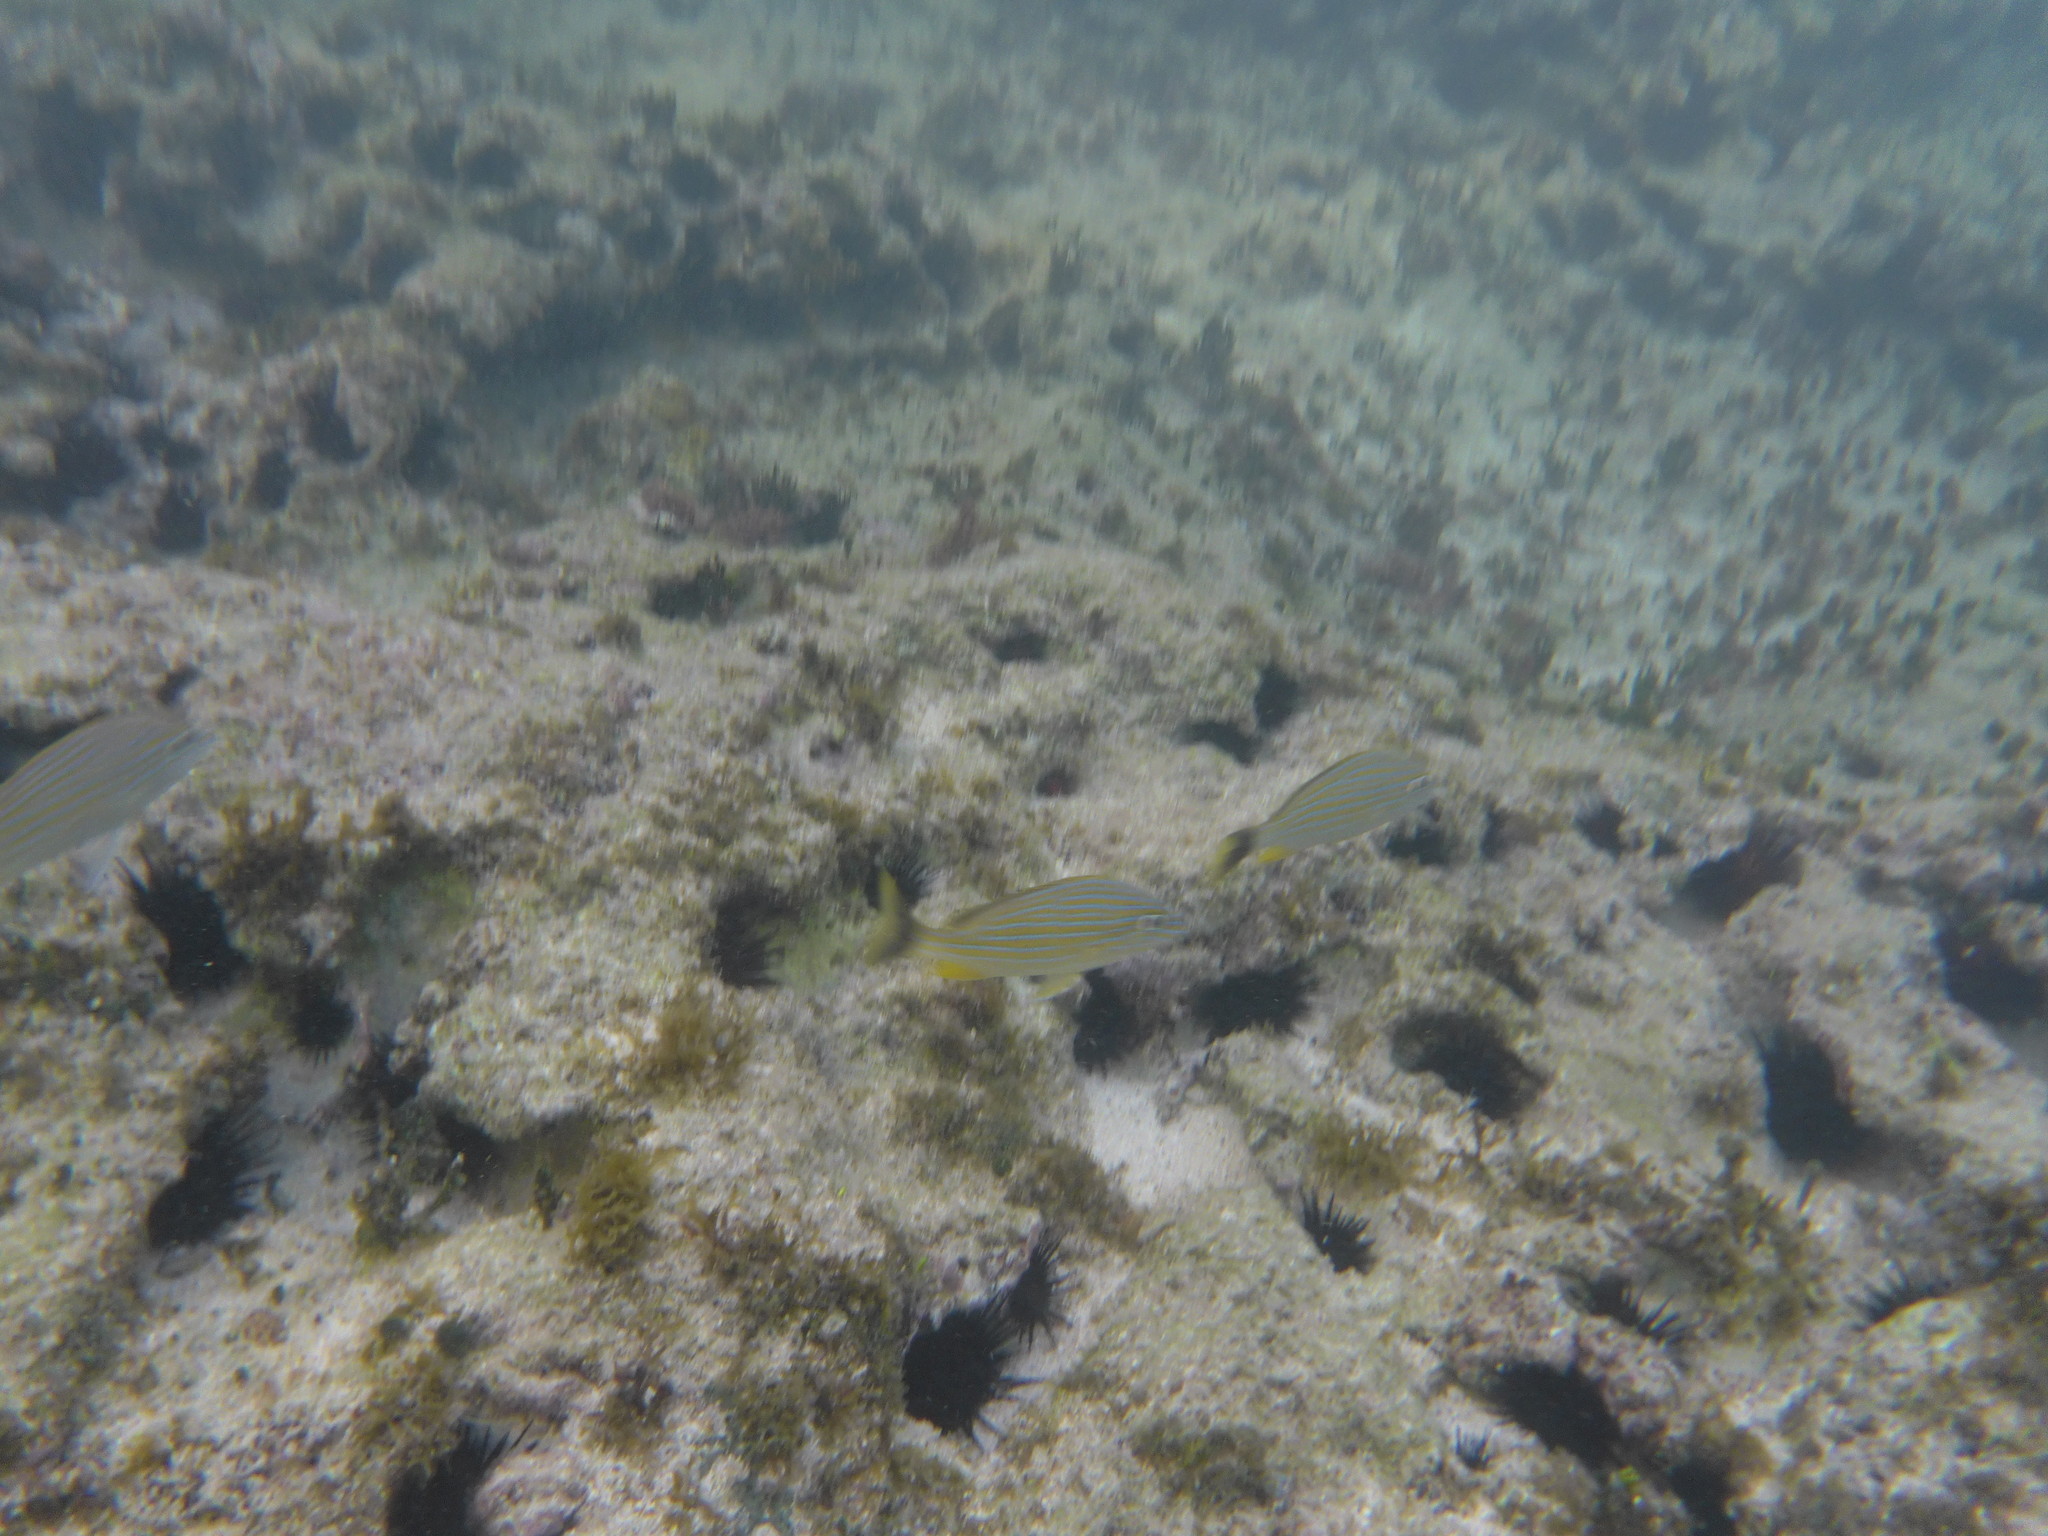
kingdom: Animalia
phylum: Chordata
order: Perciformes
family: Haemulidae
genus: Haemulon
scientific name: Haemulon sciurus
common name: Bluestriped grunt
